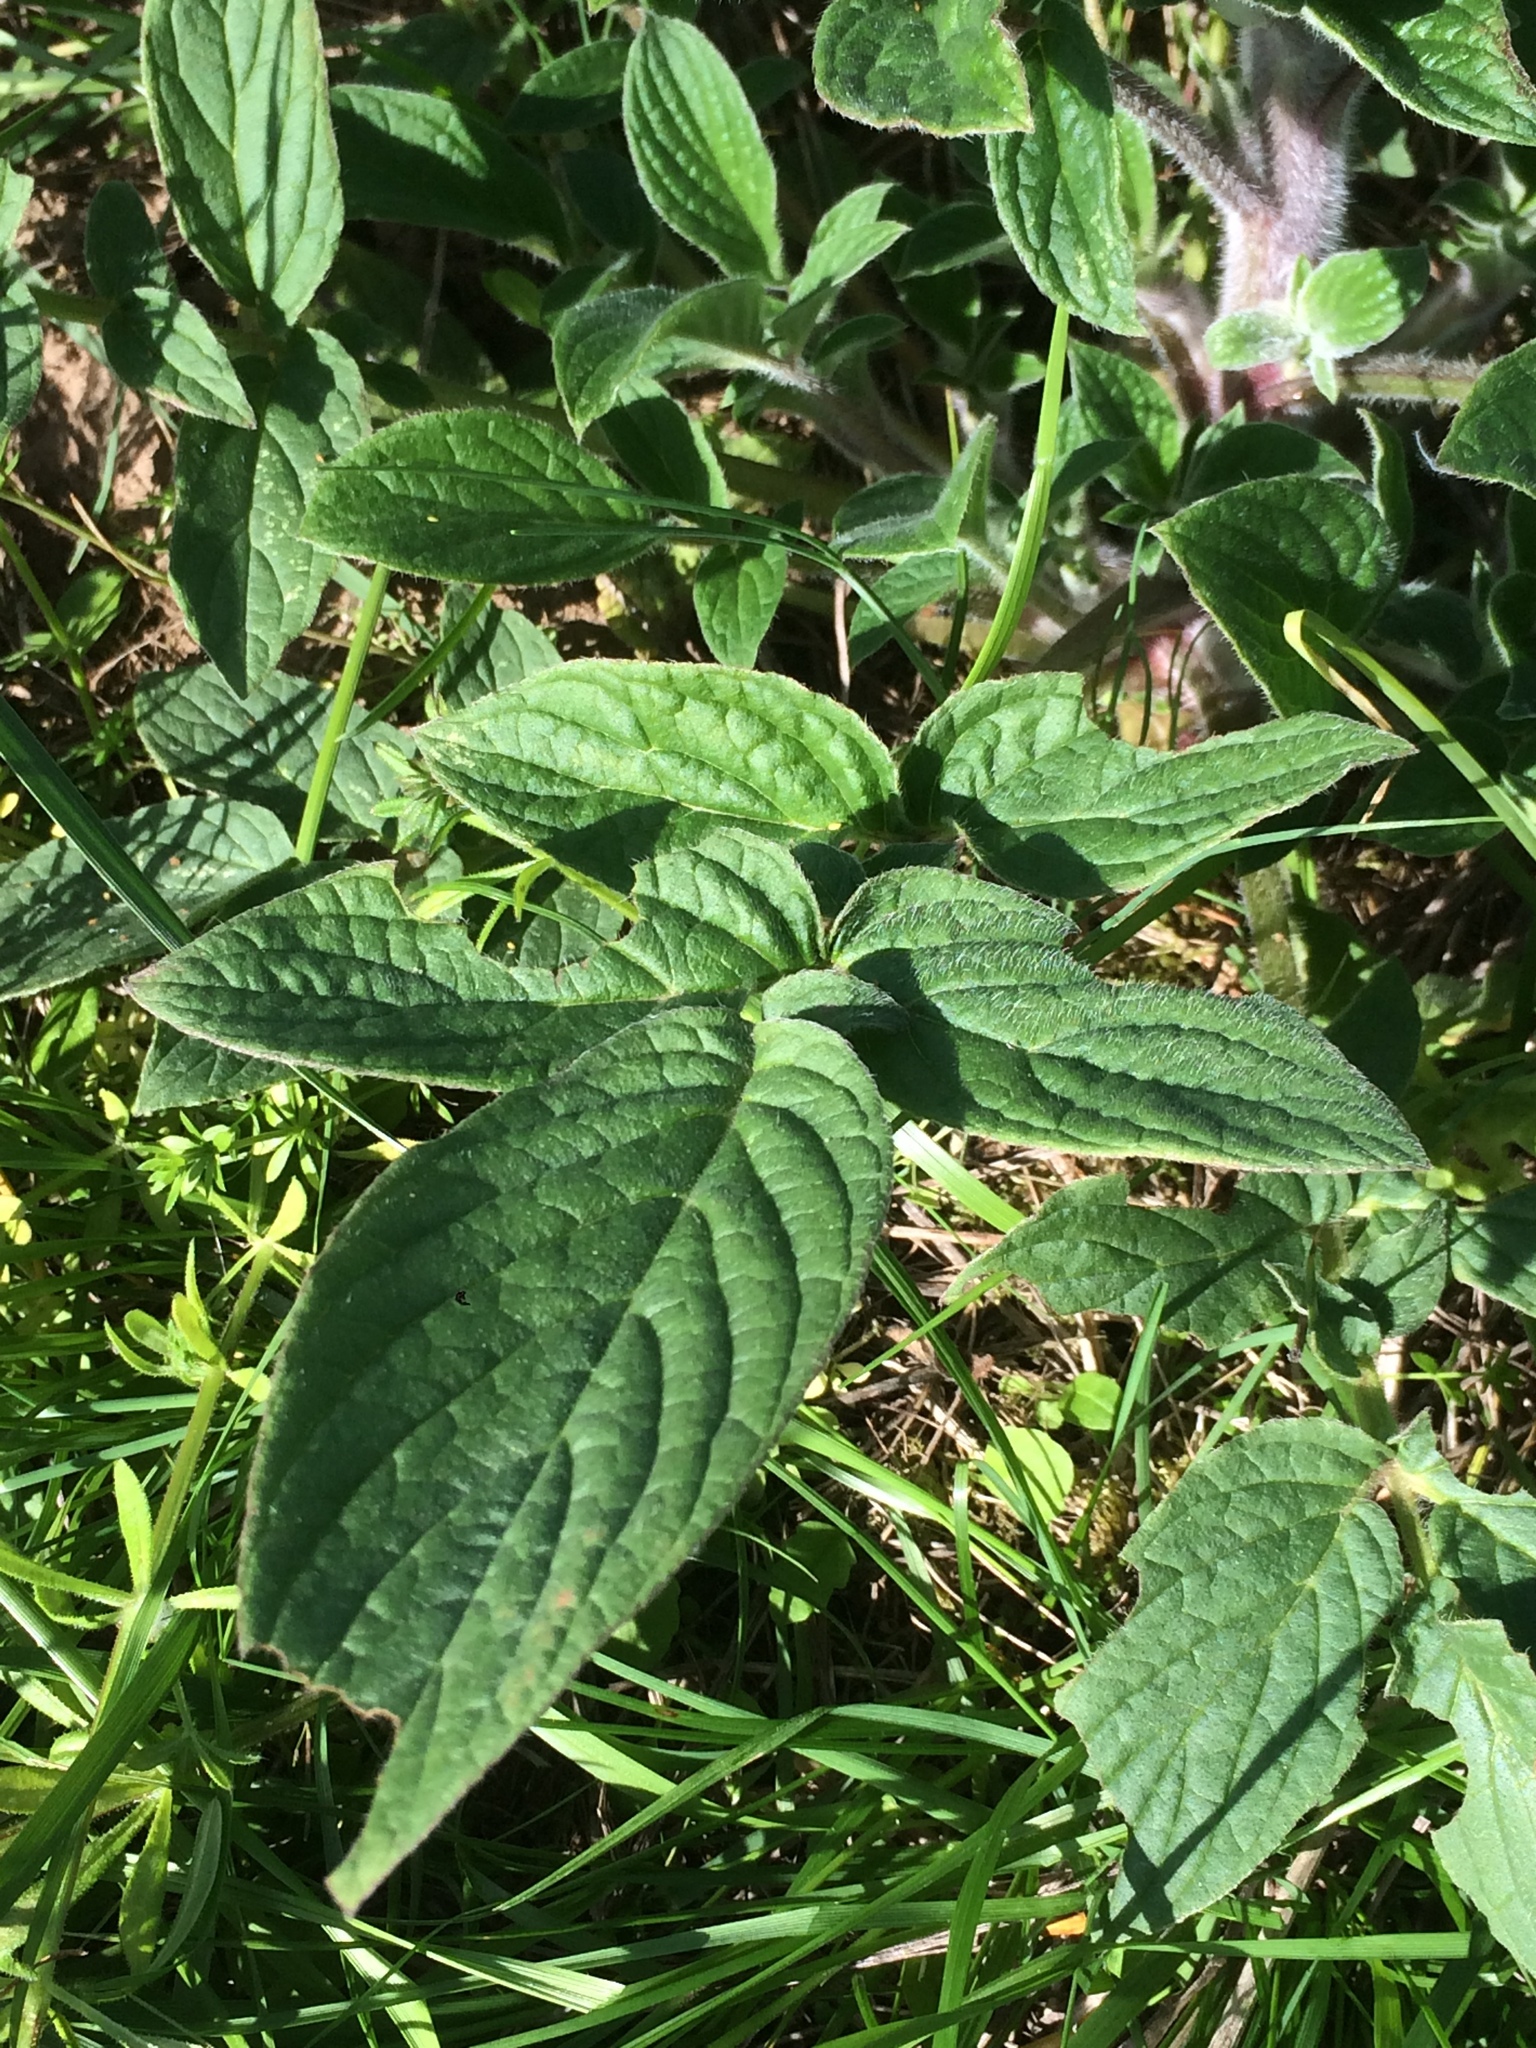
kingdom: Plantae
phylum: Tracheophyta
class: Magnoliopsida
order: Boraginales
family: Hydrophyllaceae
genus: Phacelia
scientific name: Phacelia nemoralis
